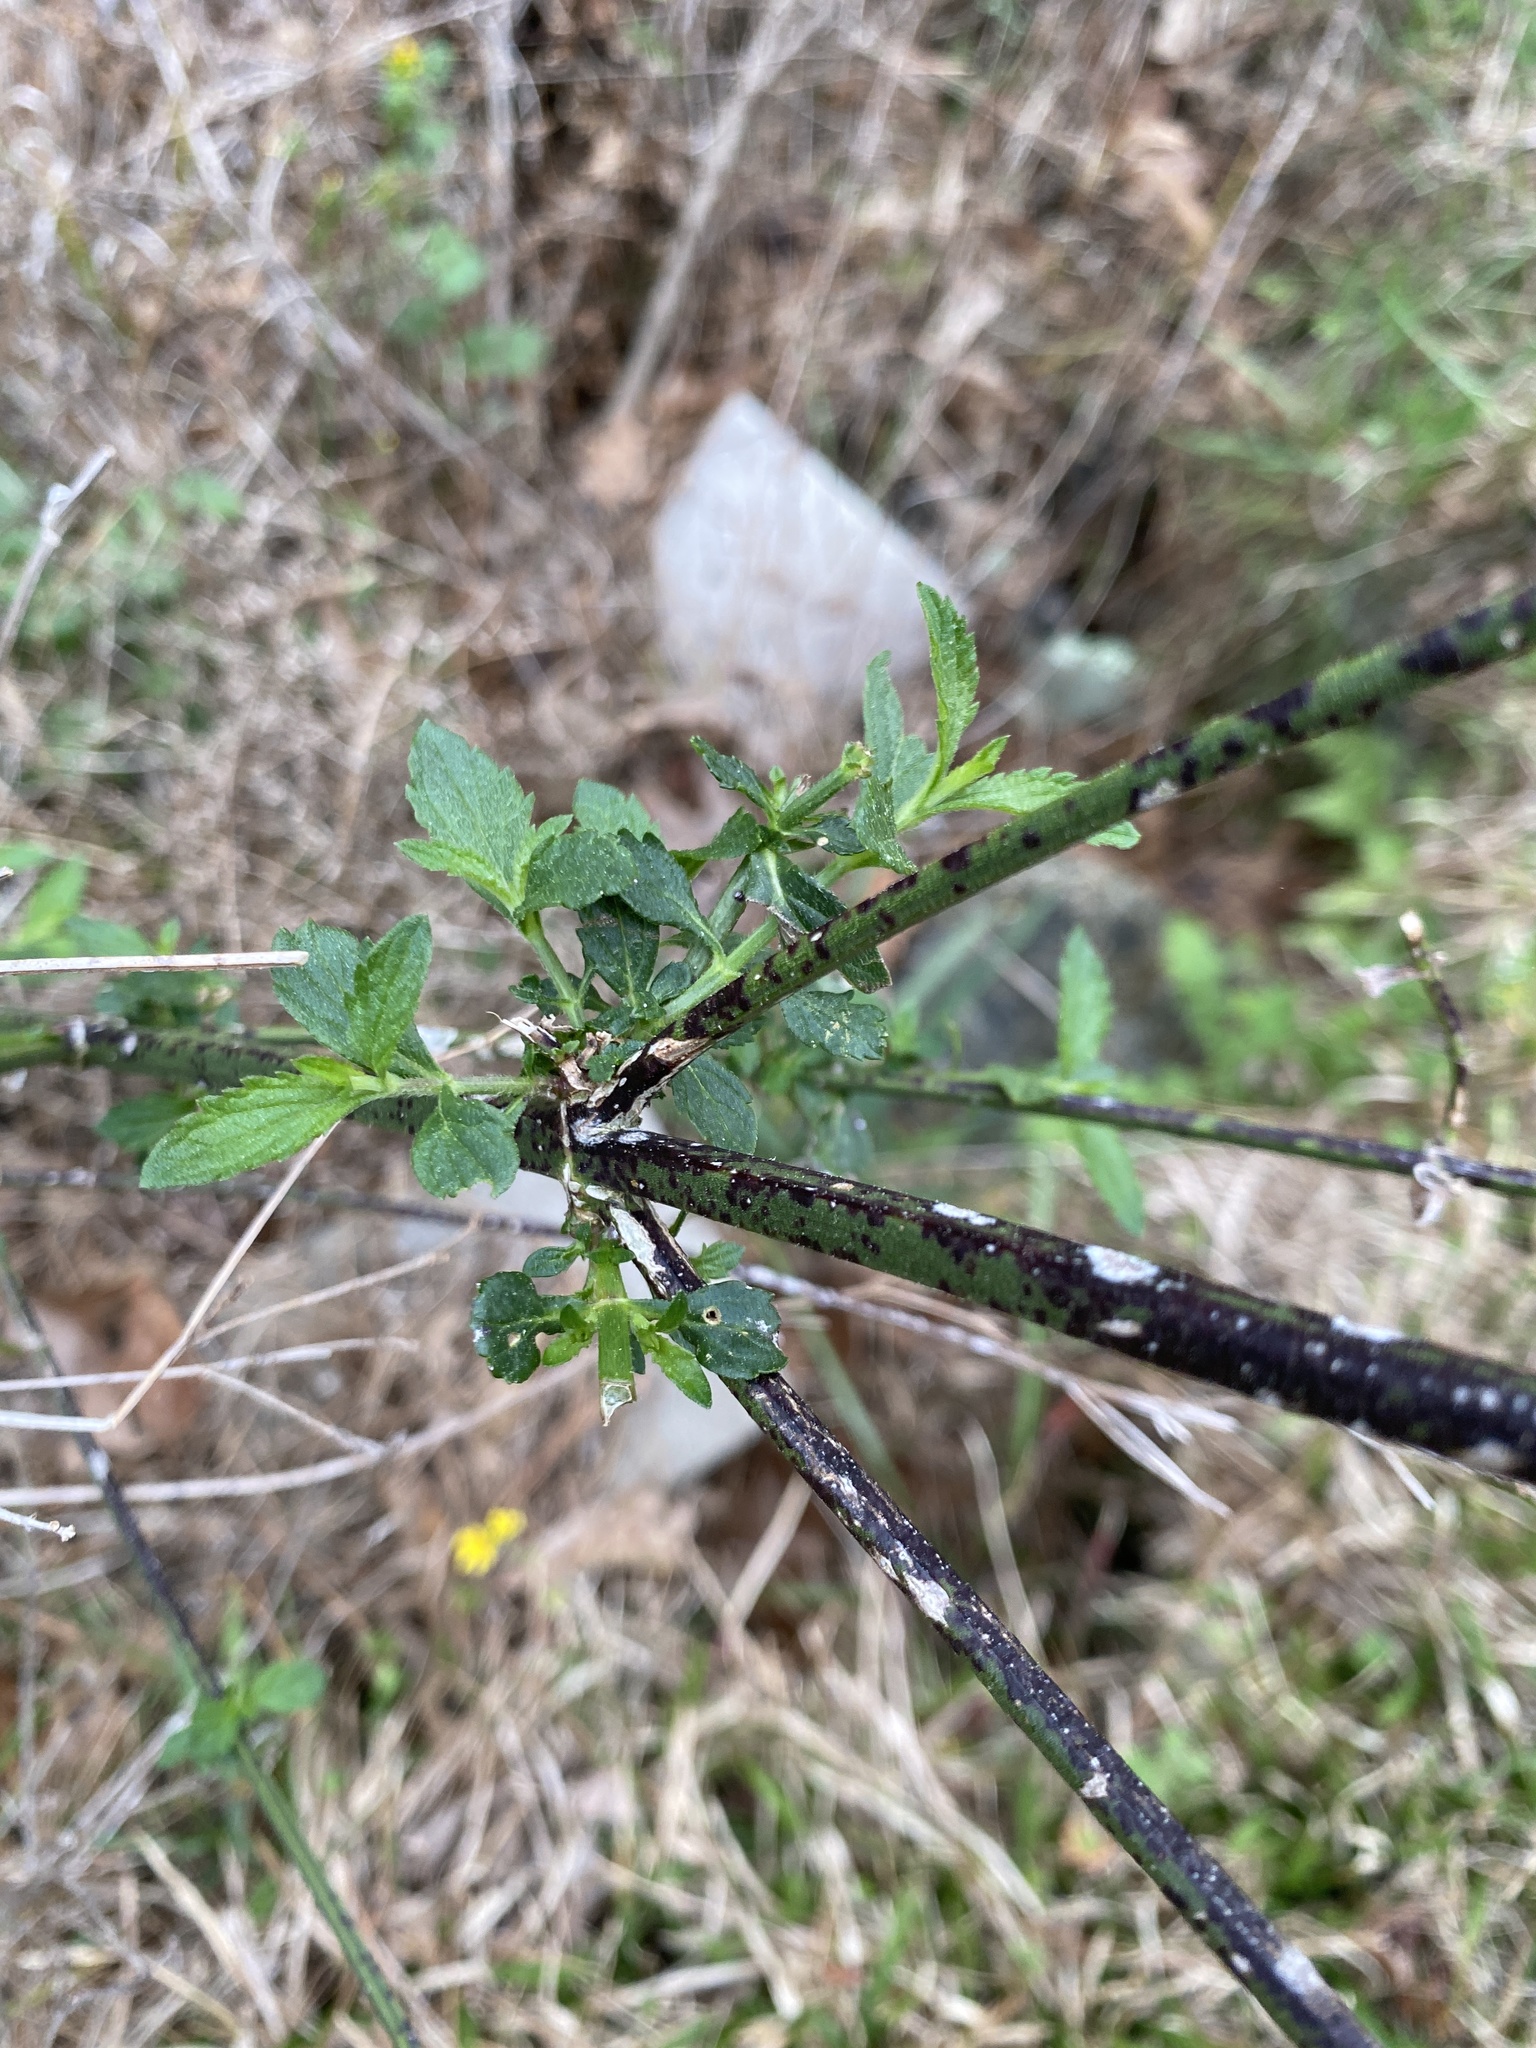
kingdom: Plantae
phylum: Tracheophyta
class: Magnoliopsida
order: Lamiales
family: Verbenaceae
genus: Verbena
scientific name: Verbena brasiliensis
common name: Brazilian vervain
